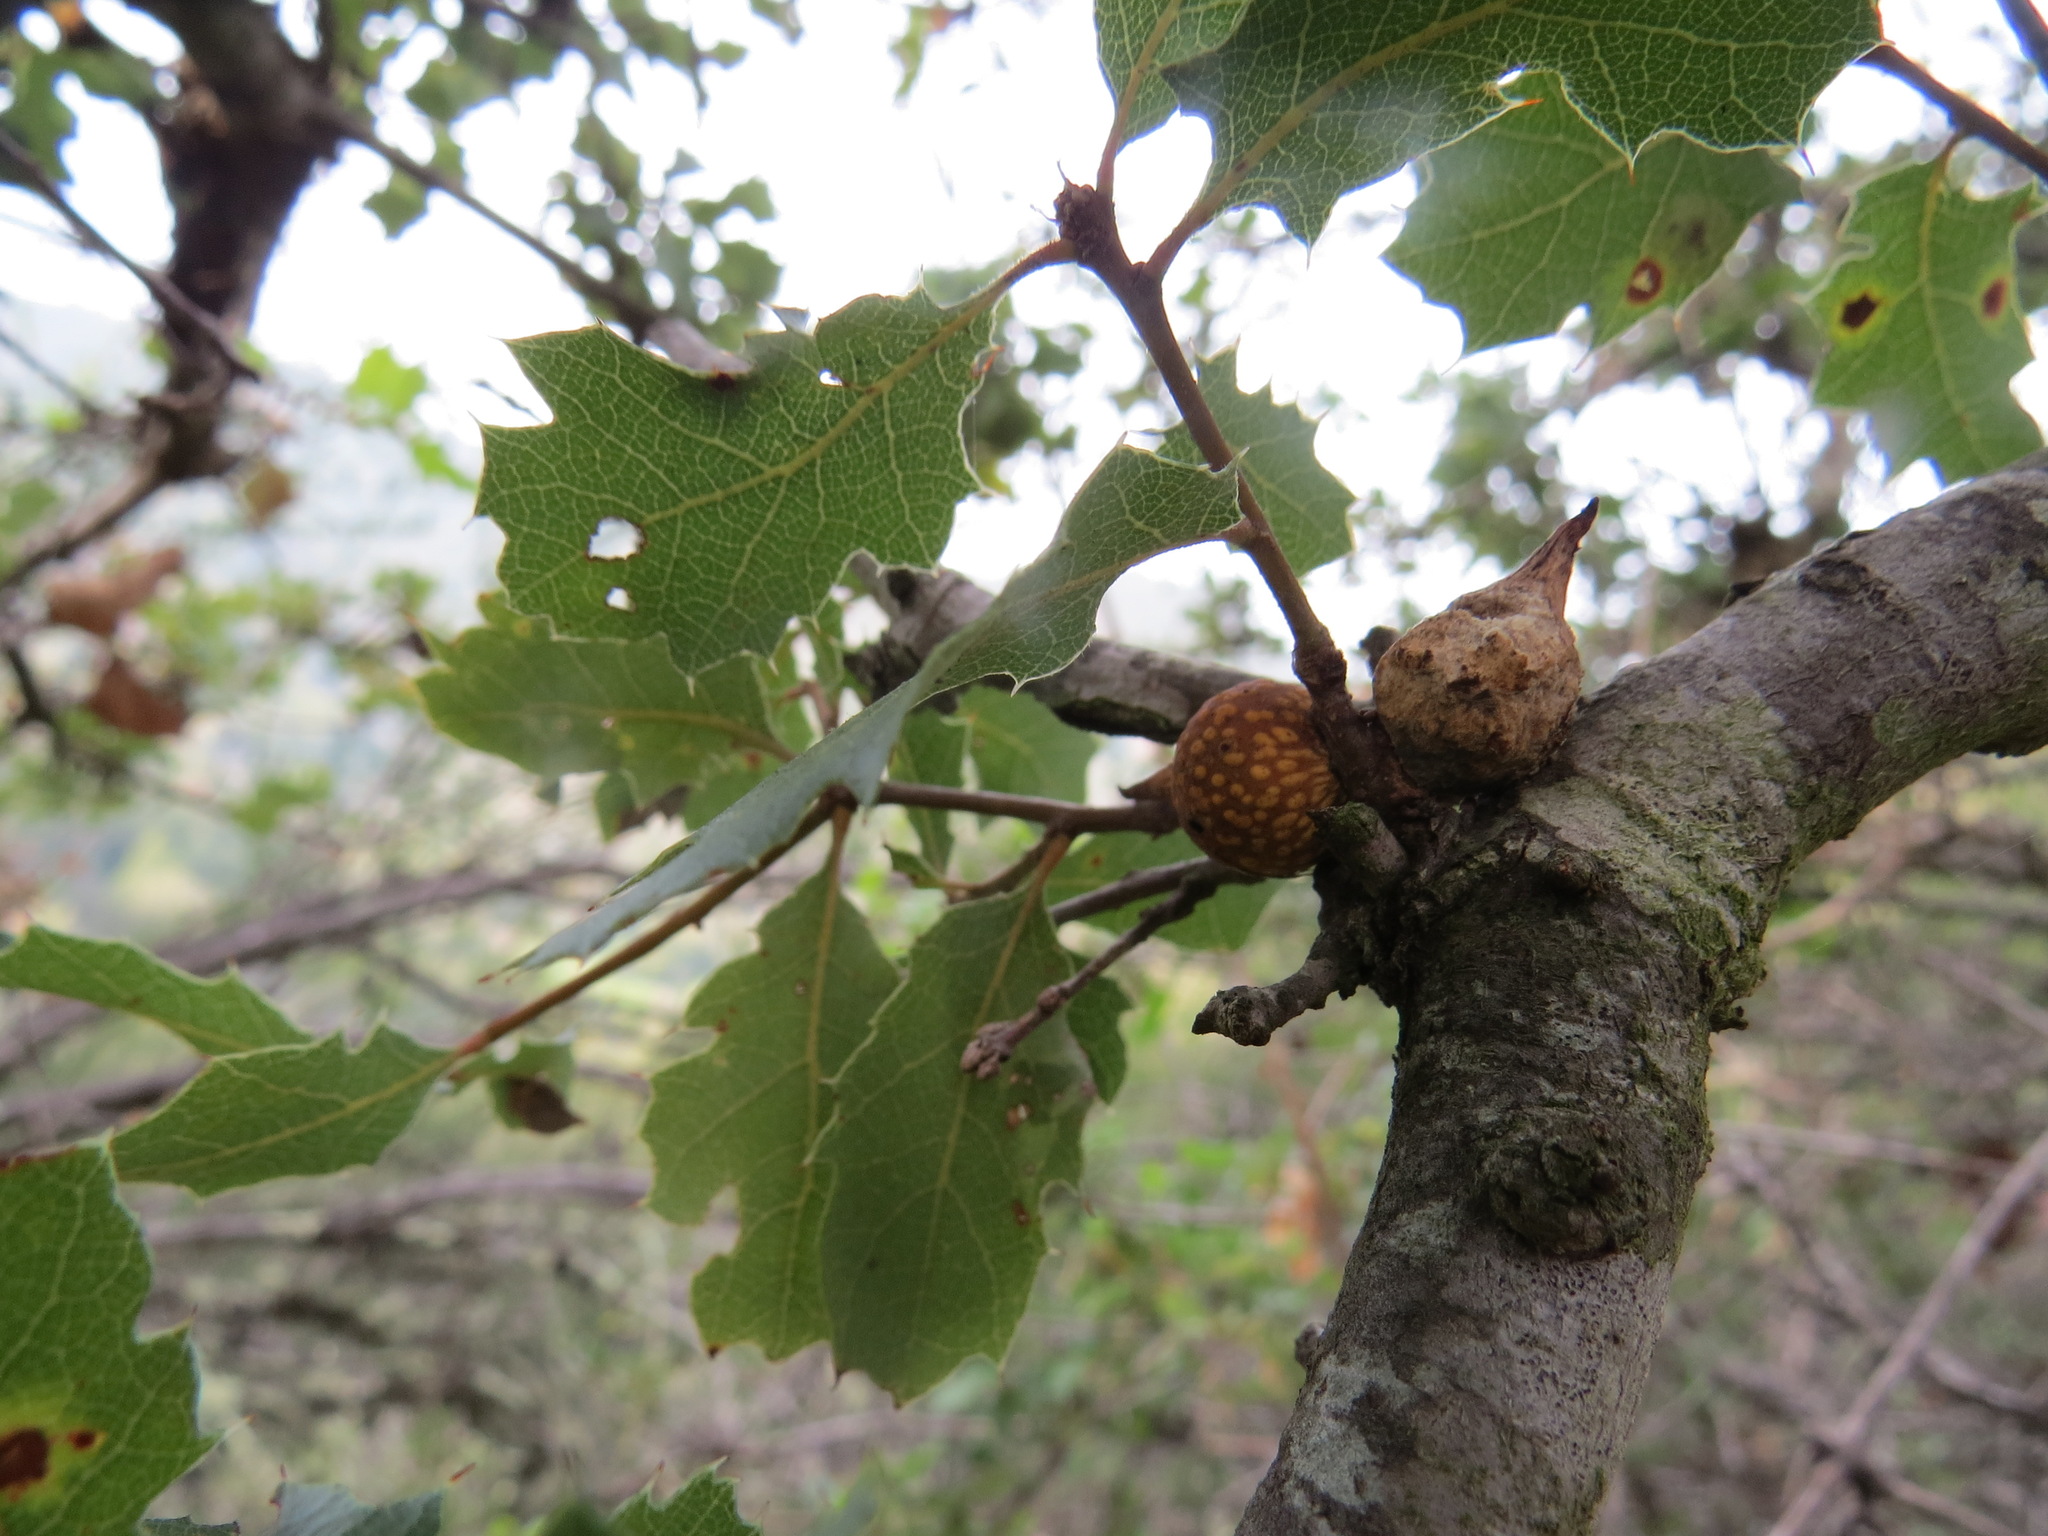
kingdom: Animalia
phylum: Arthropoda
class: Insecta
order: Hymenoptera
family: Cynipidae
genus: Burnettweldia
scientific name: Burnettweldia
